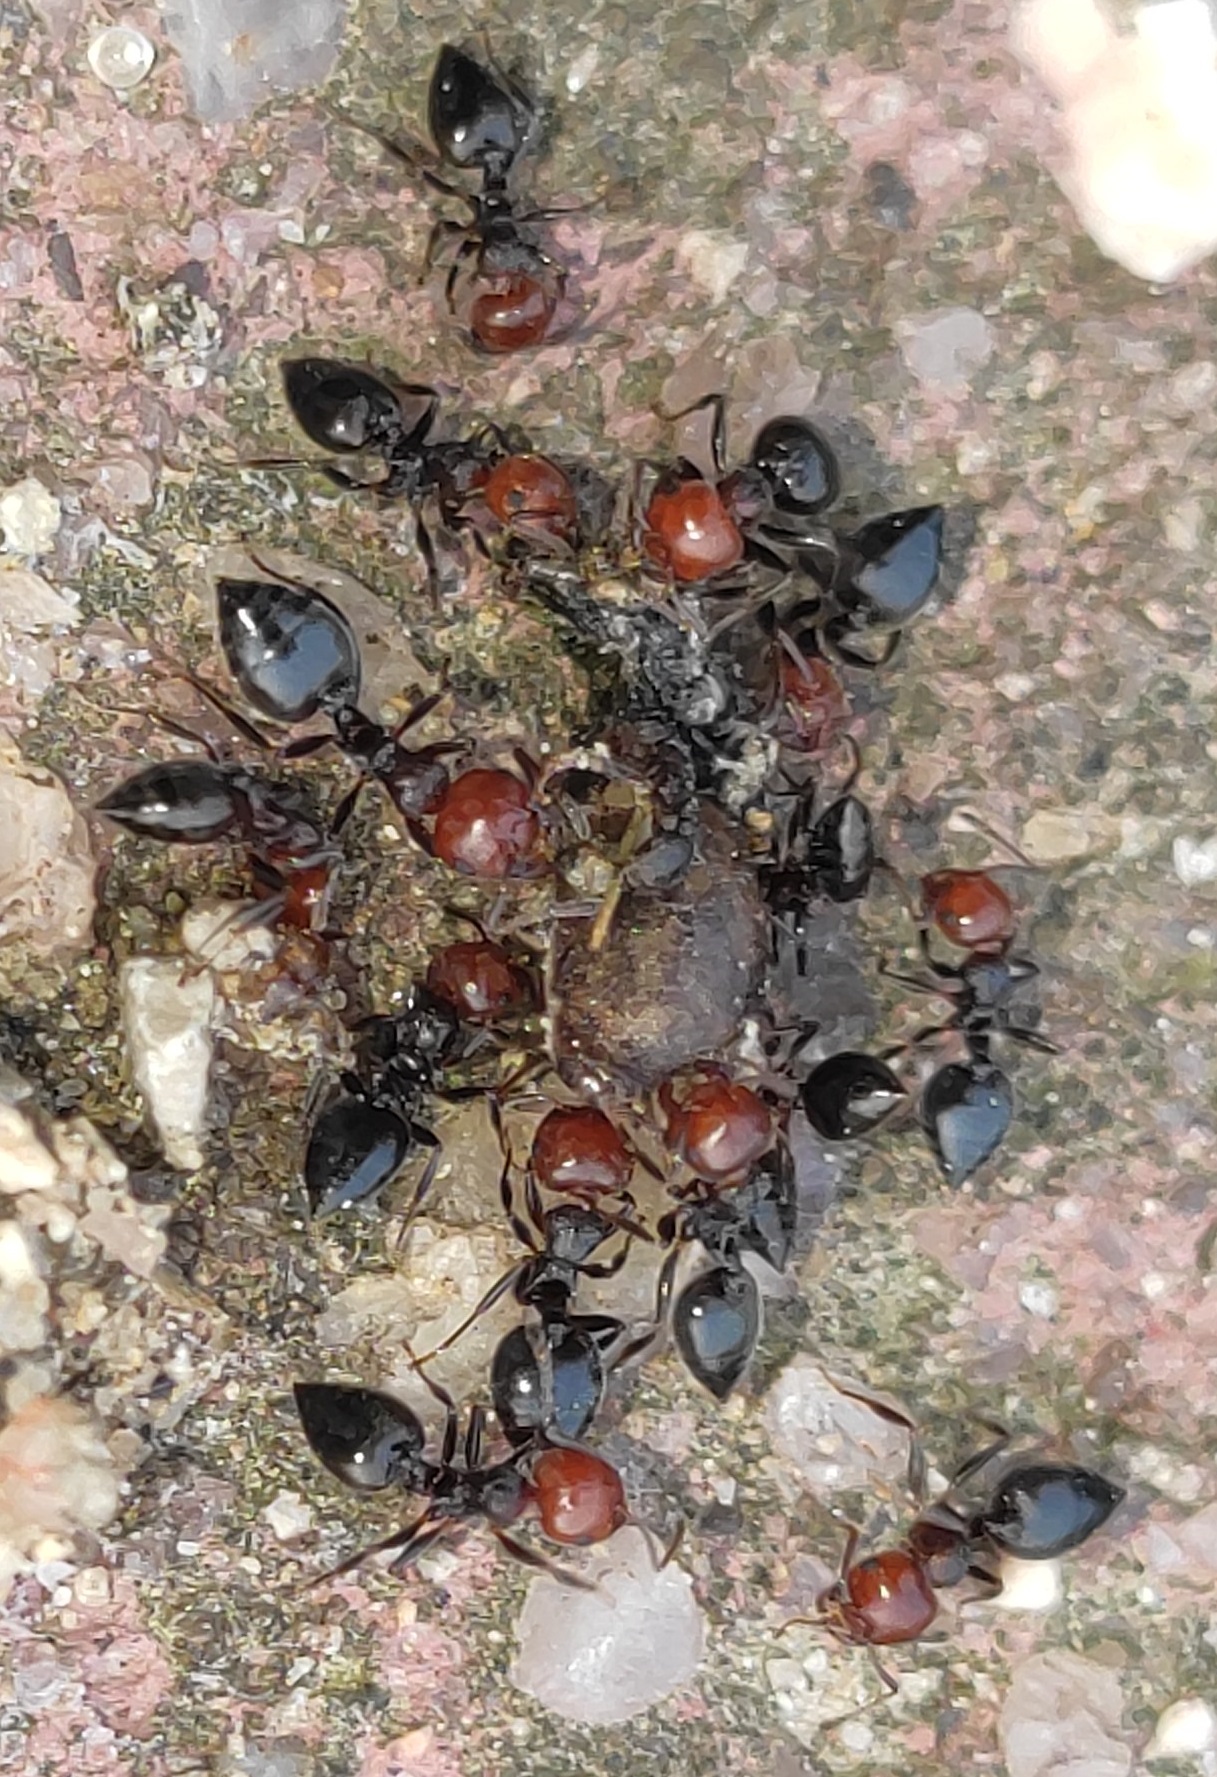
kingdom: Animalia
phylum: Arthropoda
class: Insecta
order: Hymenoptera
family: Formicidae
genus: Crematogaster
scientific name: Crematogaster scutellaris
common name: Fourmi du liège
